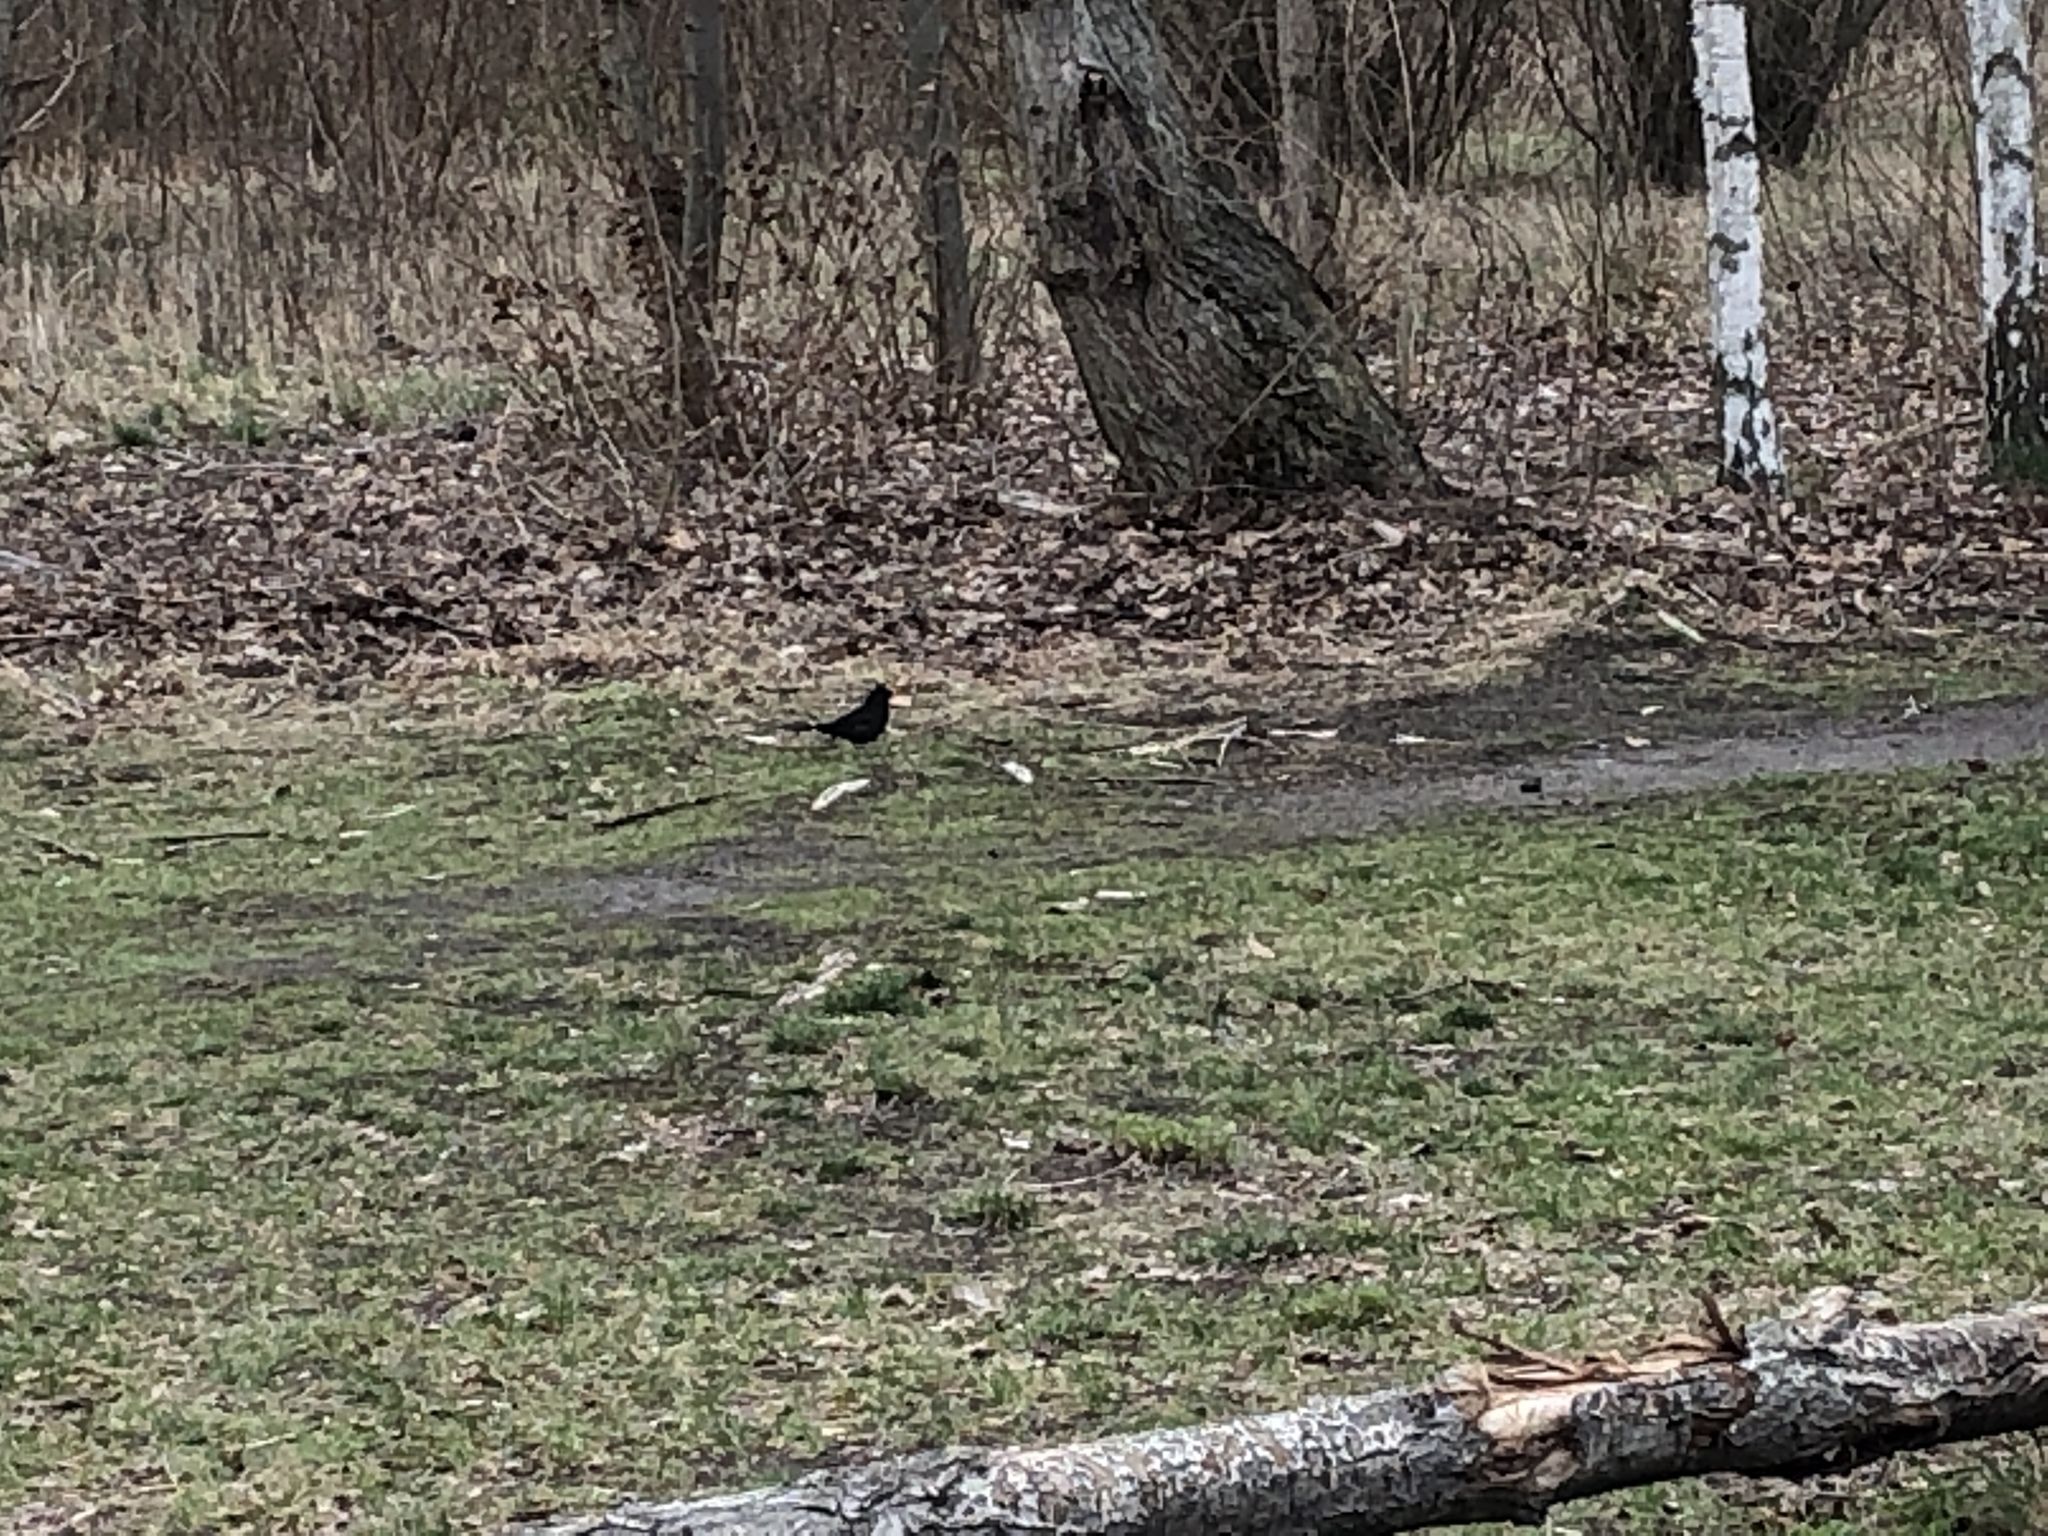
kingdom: Animalia
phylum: Chordata
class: Aves
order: Passeriformes
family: Turdidae
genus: Turdus
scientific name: Turdus merula
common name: Common blackbird
